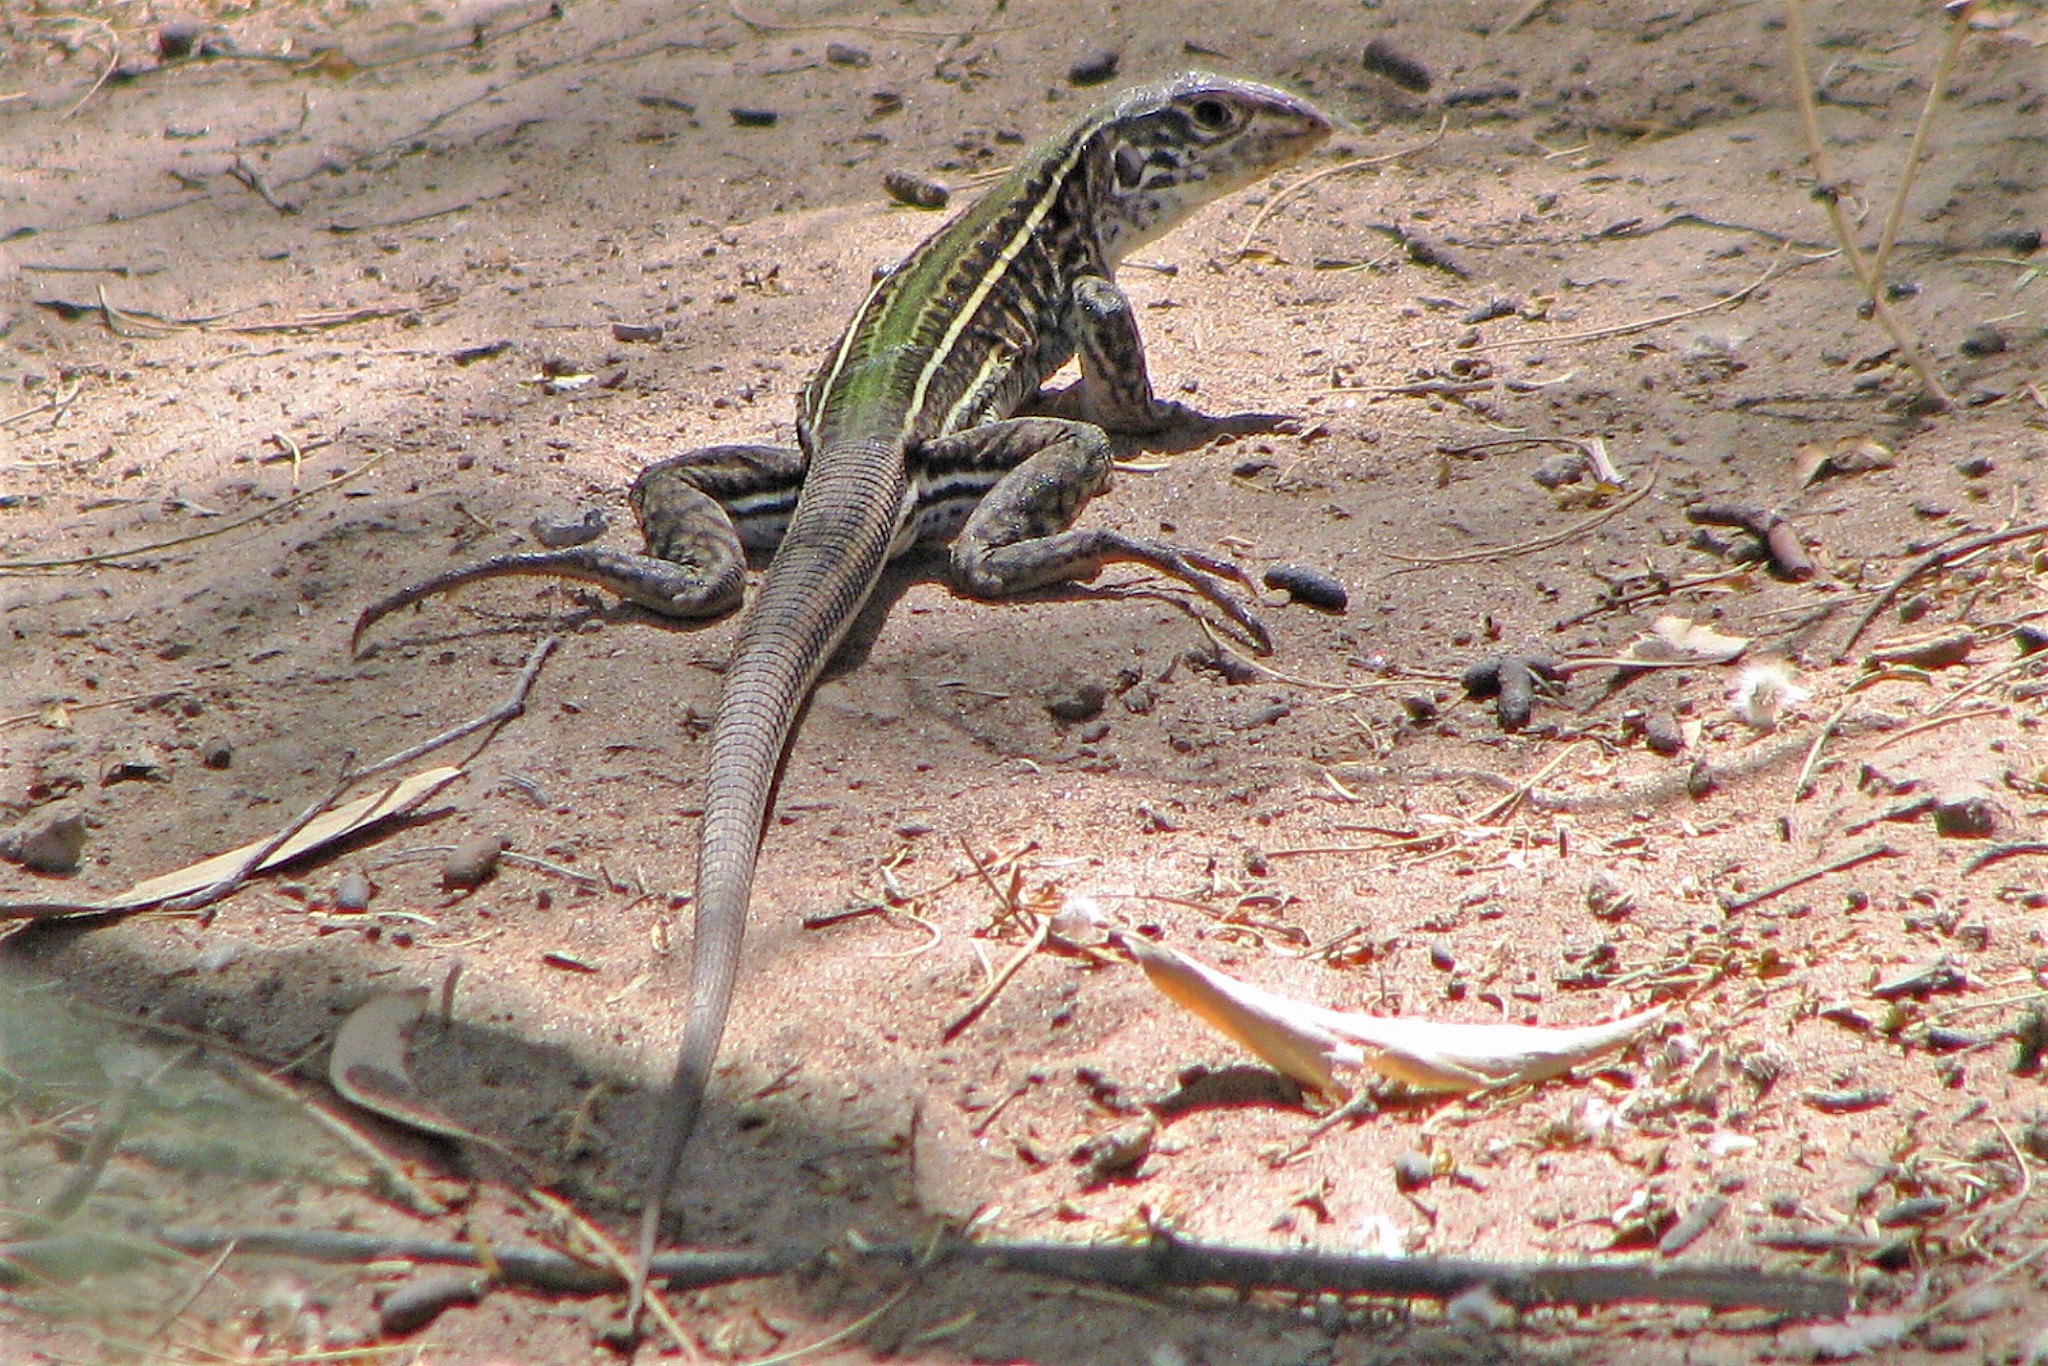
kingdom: Animalia
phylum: Chordata
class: Squamata
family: Teiidae
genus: Teius
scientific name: Teius teyou
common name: Four-toed tegu
